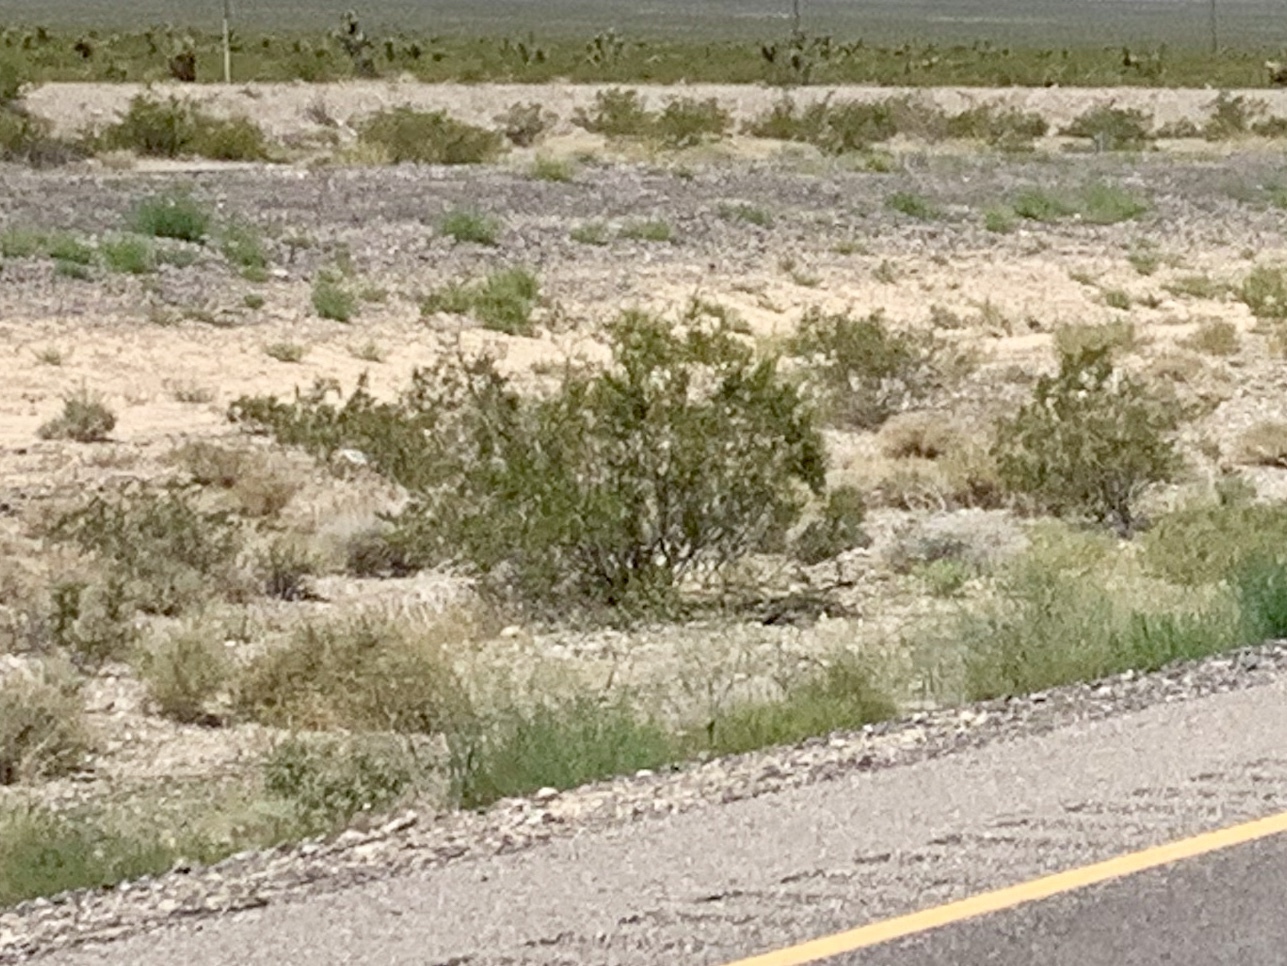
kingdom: Plantae
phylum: Tracheophyta
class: Magnoliopsida
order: Zygophyllales
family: Zygophyllaceae
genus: Larrea
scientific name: Larrea tridentata
